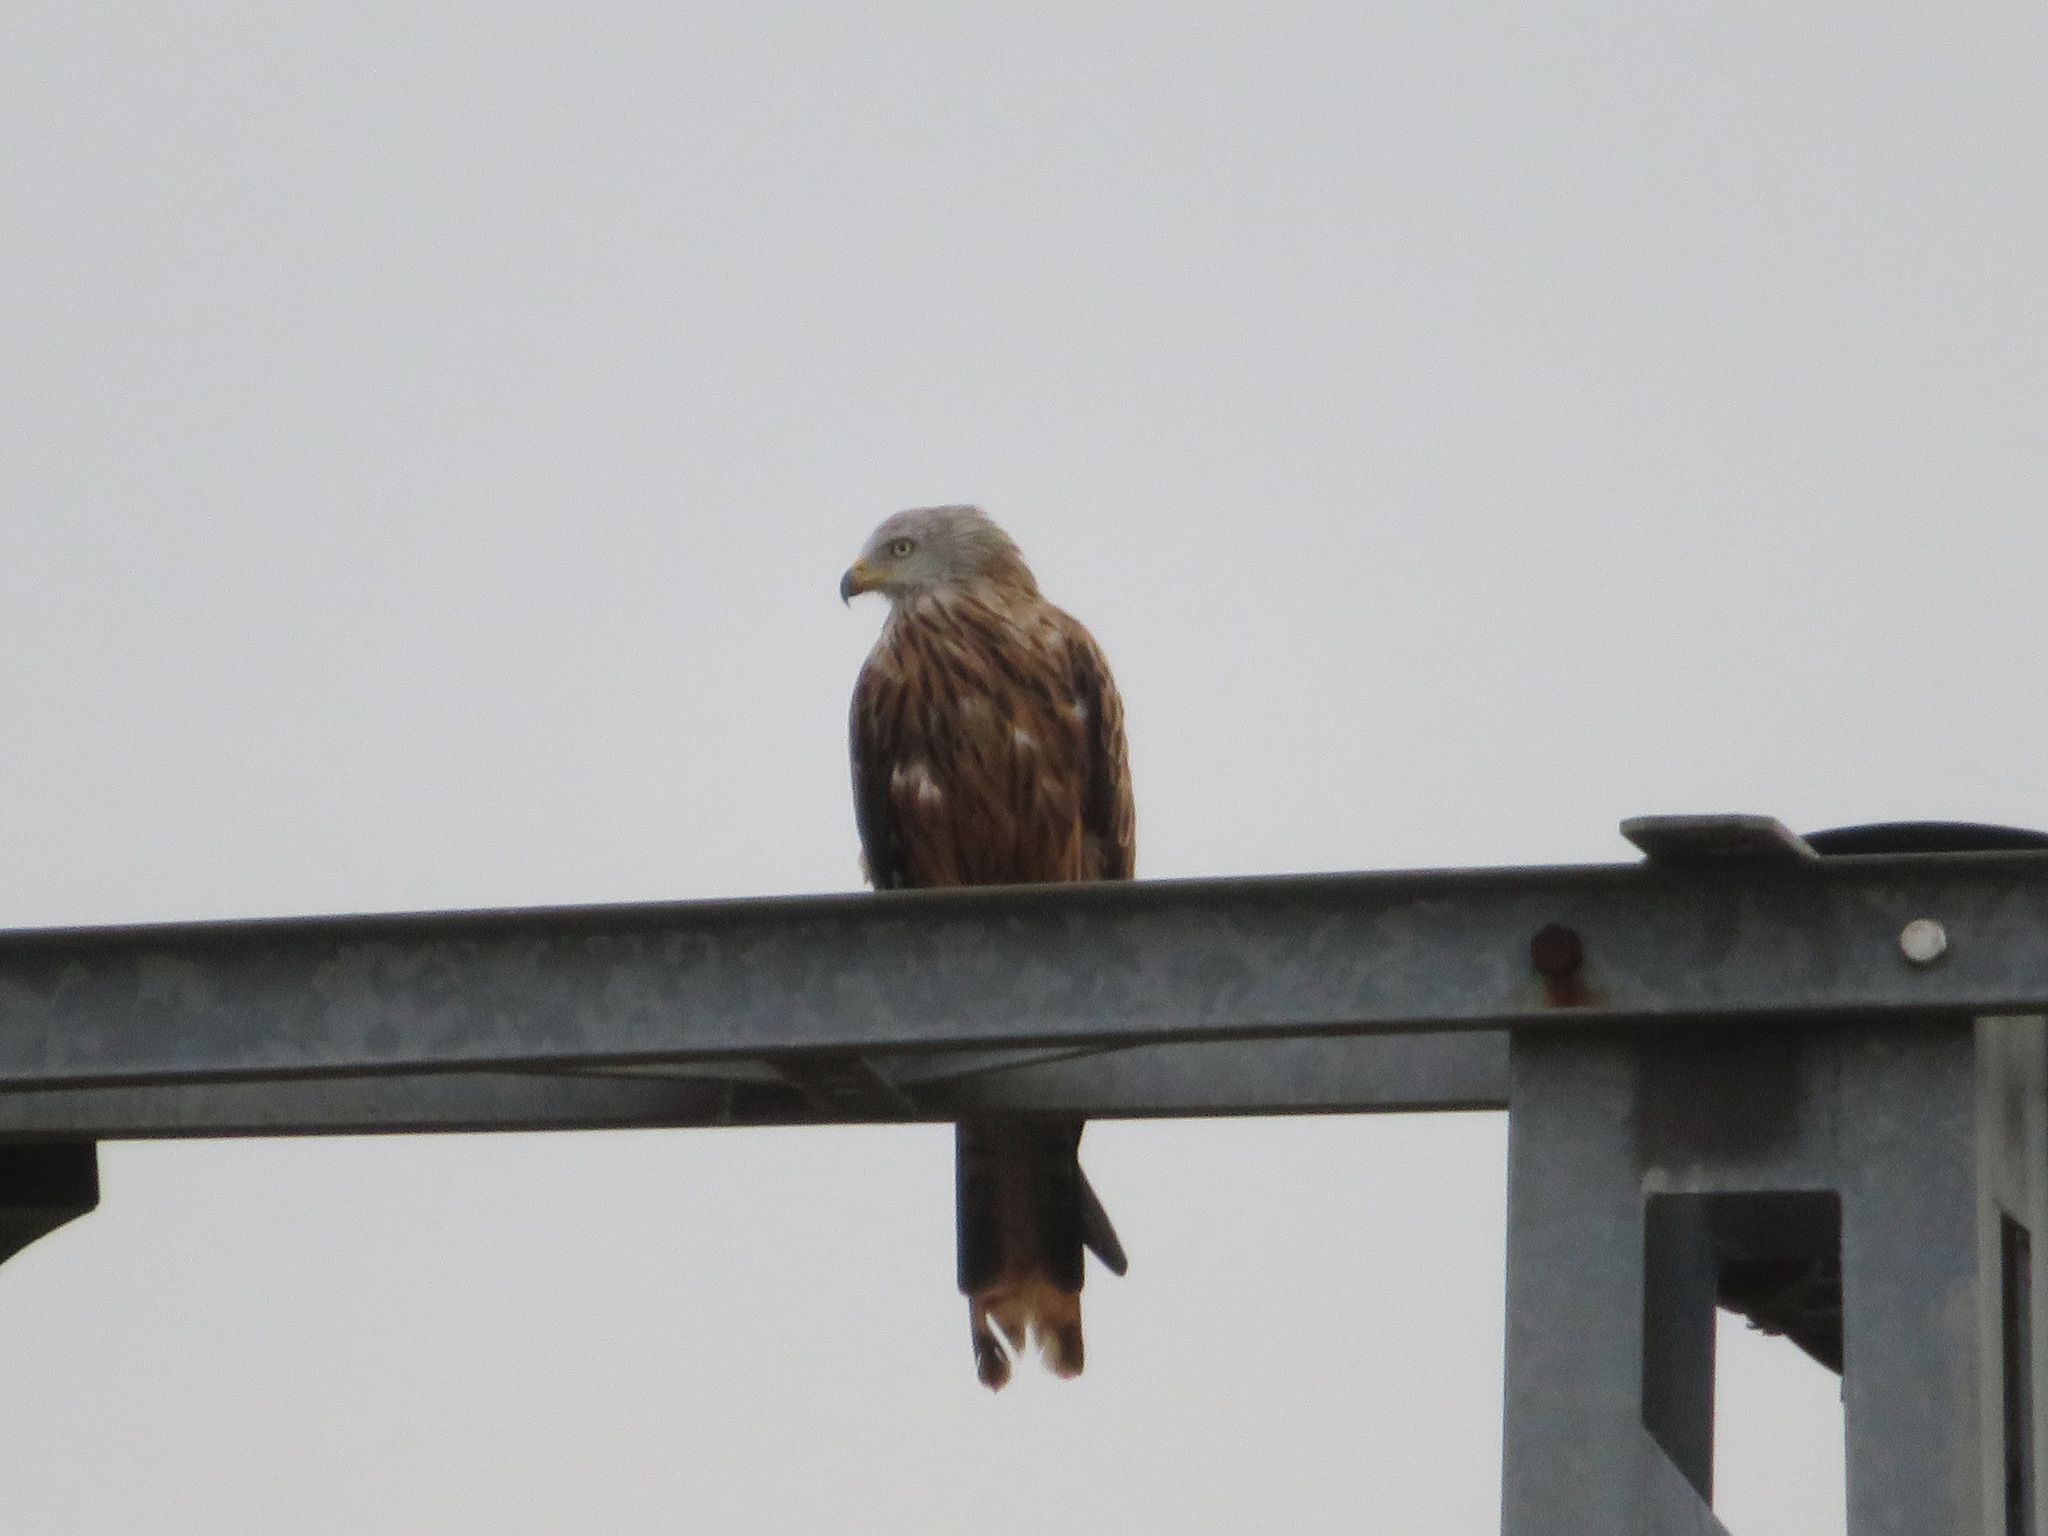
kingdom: Animalia
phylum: Chordata
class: Aves
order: Accipitriformes
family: Accipitridae
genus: Milvus
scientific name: Milvus milvus
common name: Red kite
